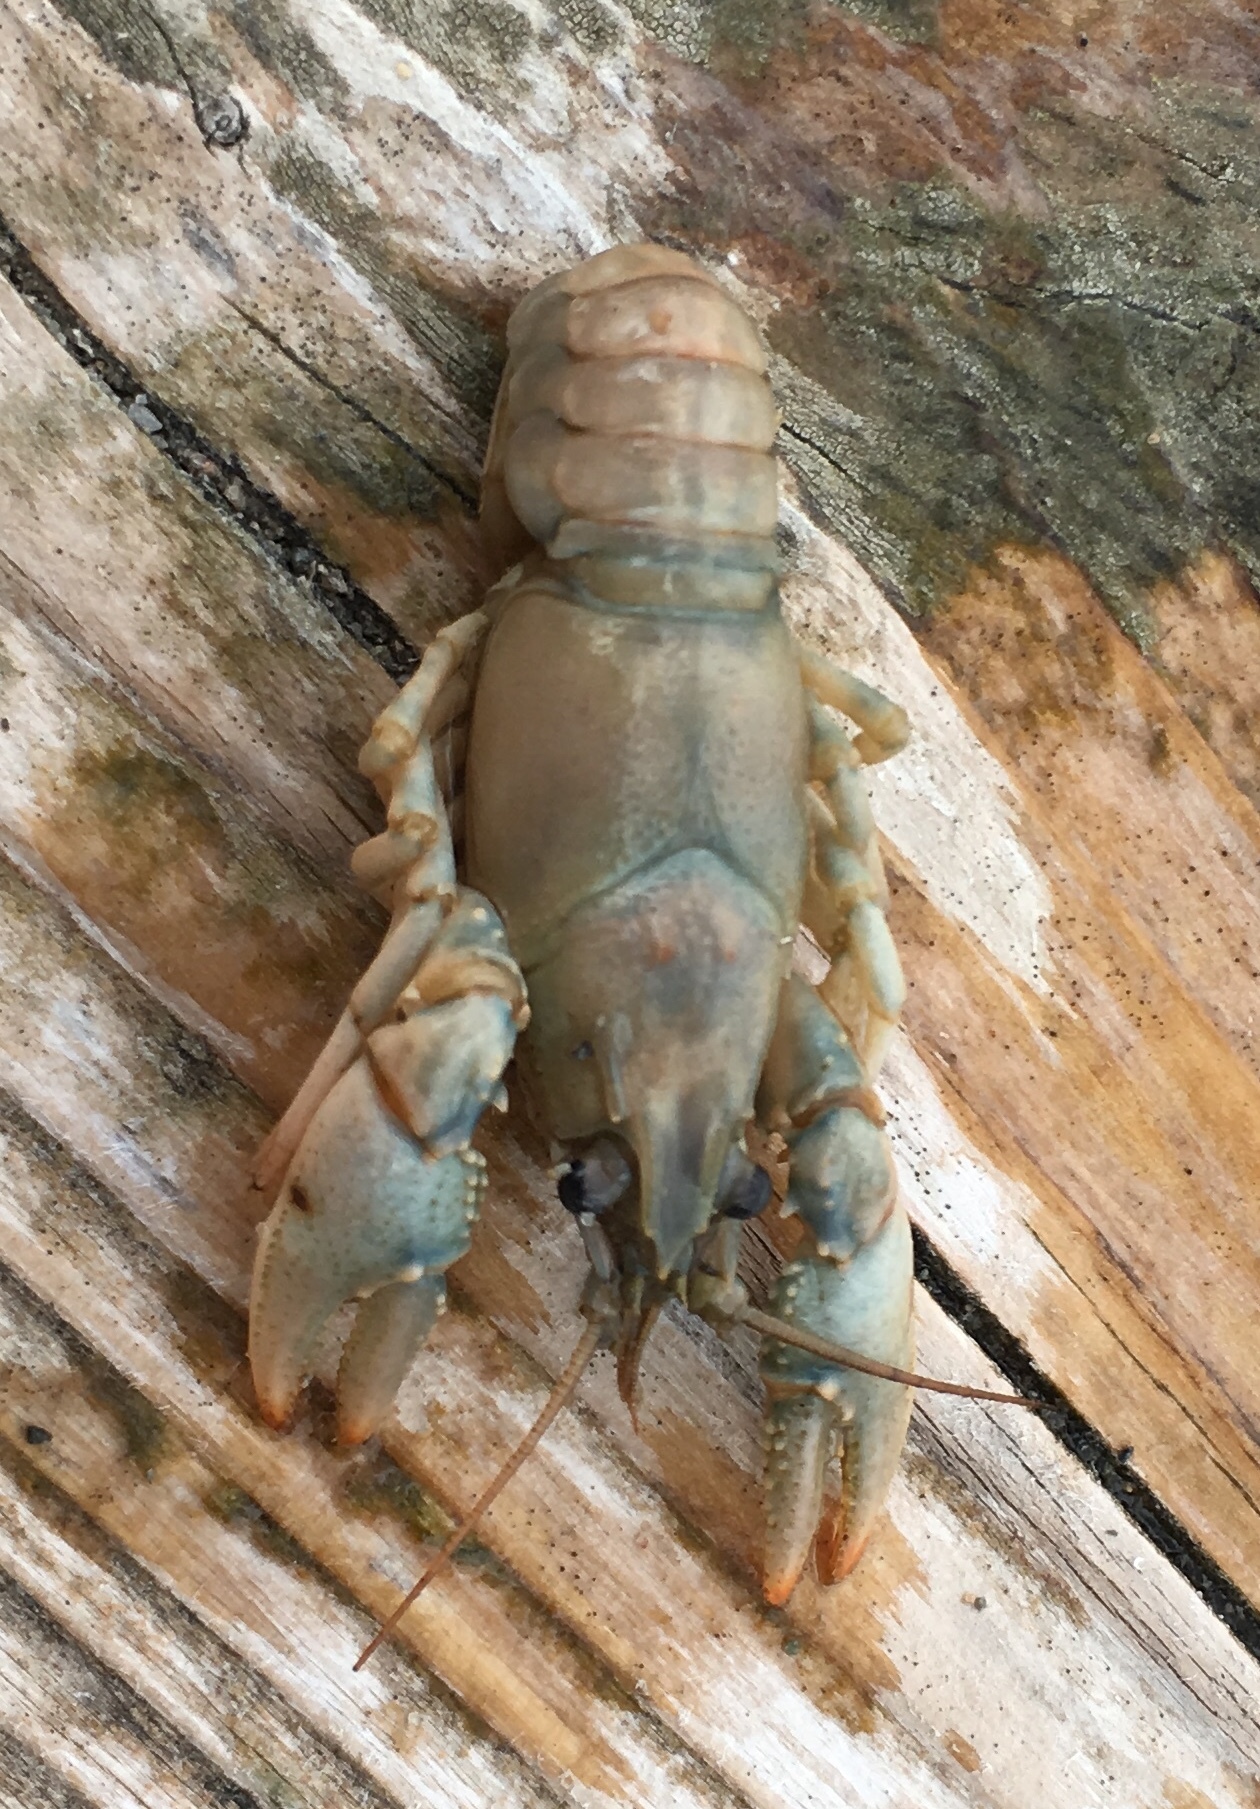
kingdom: Animalia
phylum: Arthropoda
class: Malacostraca
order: Decapoda
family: Cambaridae
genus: Faxonius
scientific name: Faxonius virilis
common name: Virile crayfish
